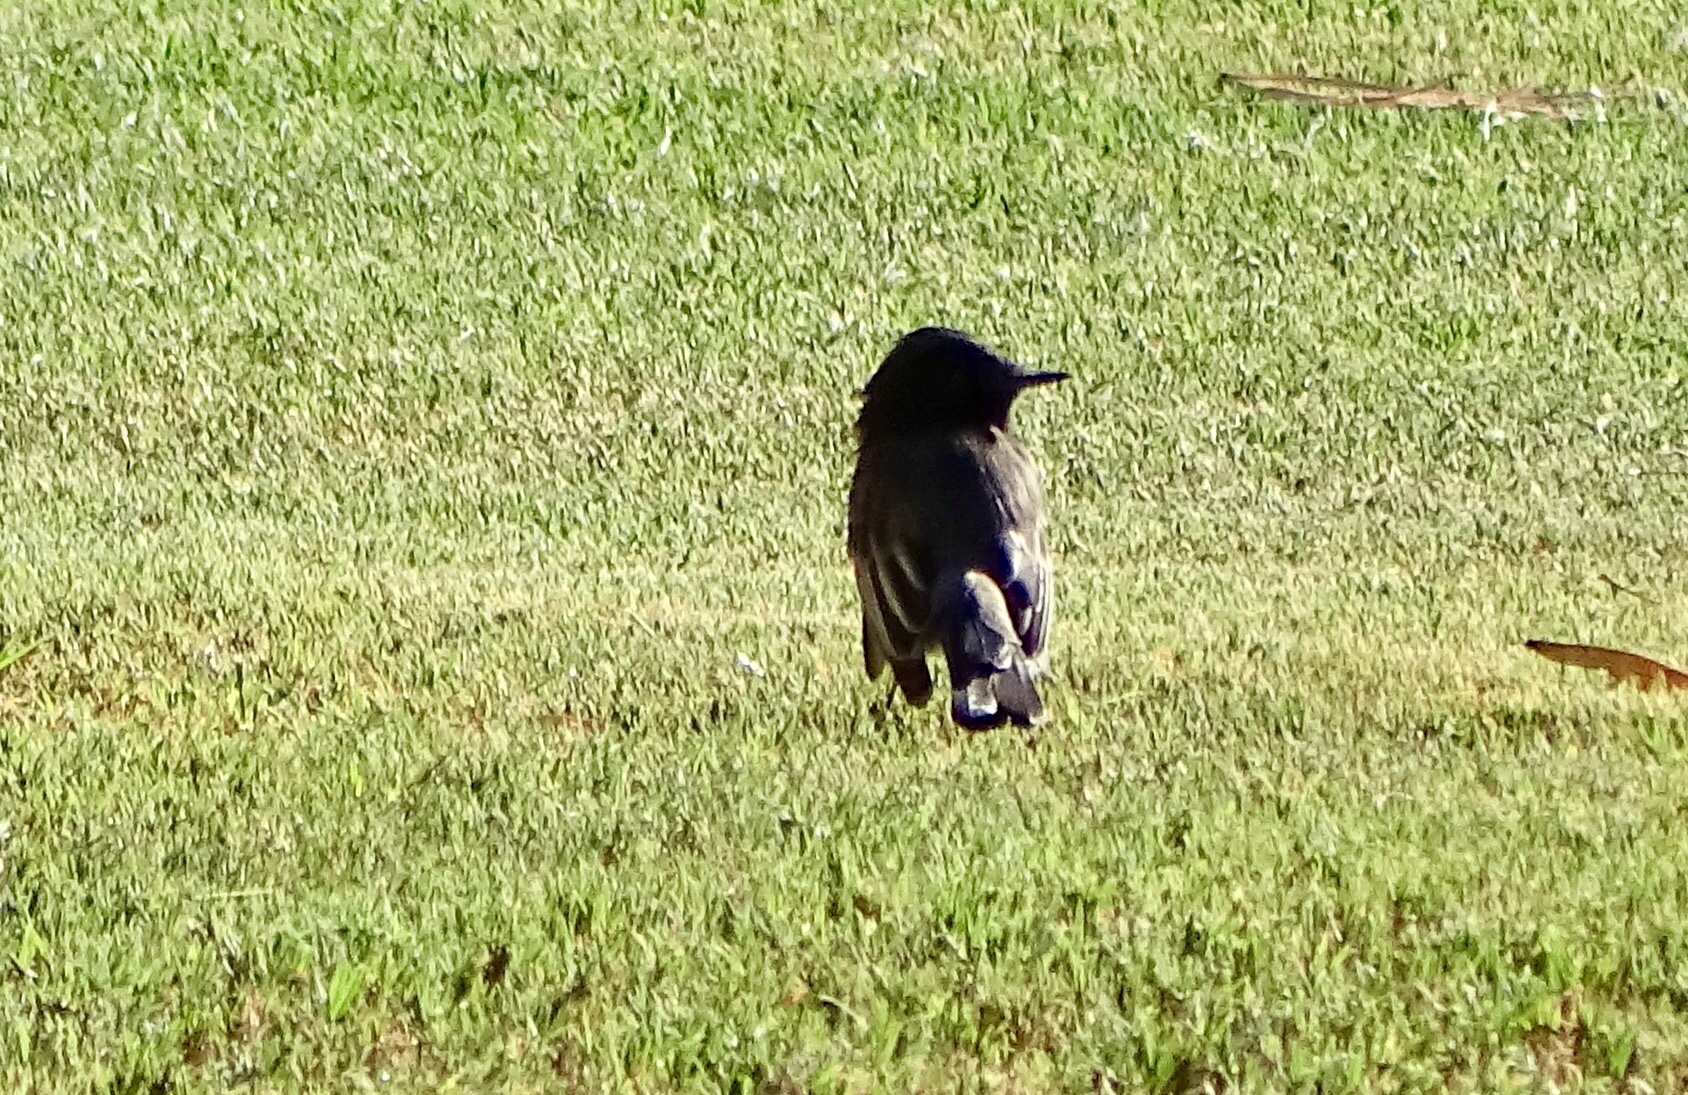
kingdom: Animalia
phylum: Chordata
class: Aves
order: Passeriformes
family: Tyrannidae
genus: Sayornis
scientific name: Sayornis nigricans
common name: Black phoebe
